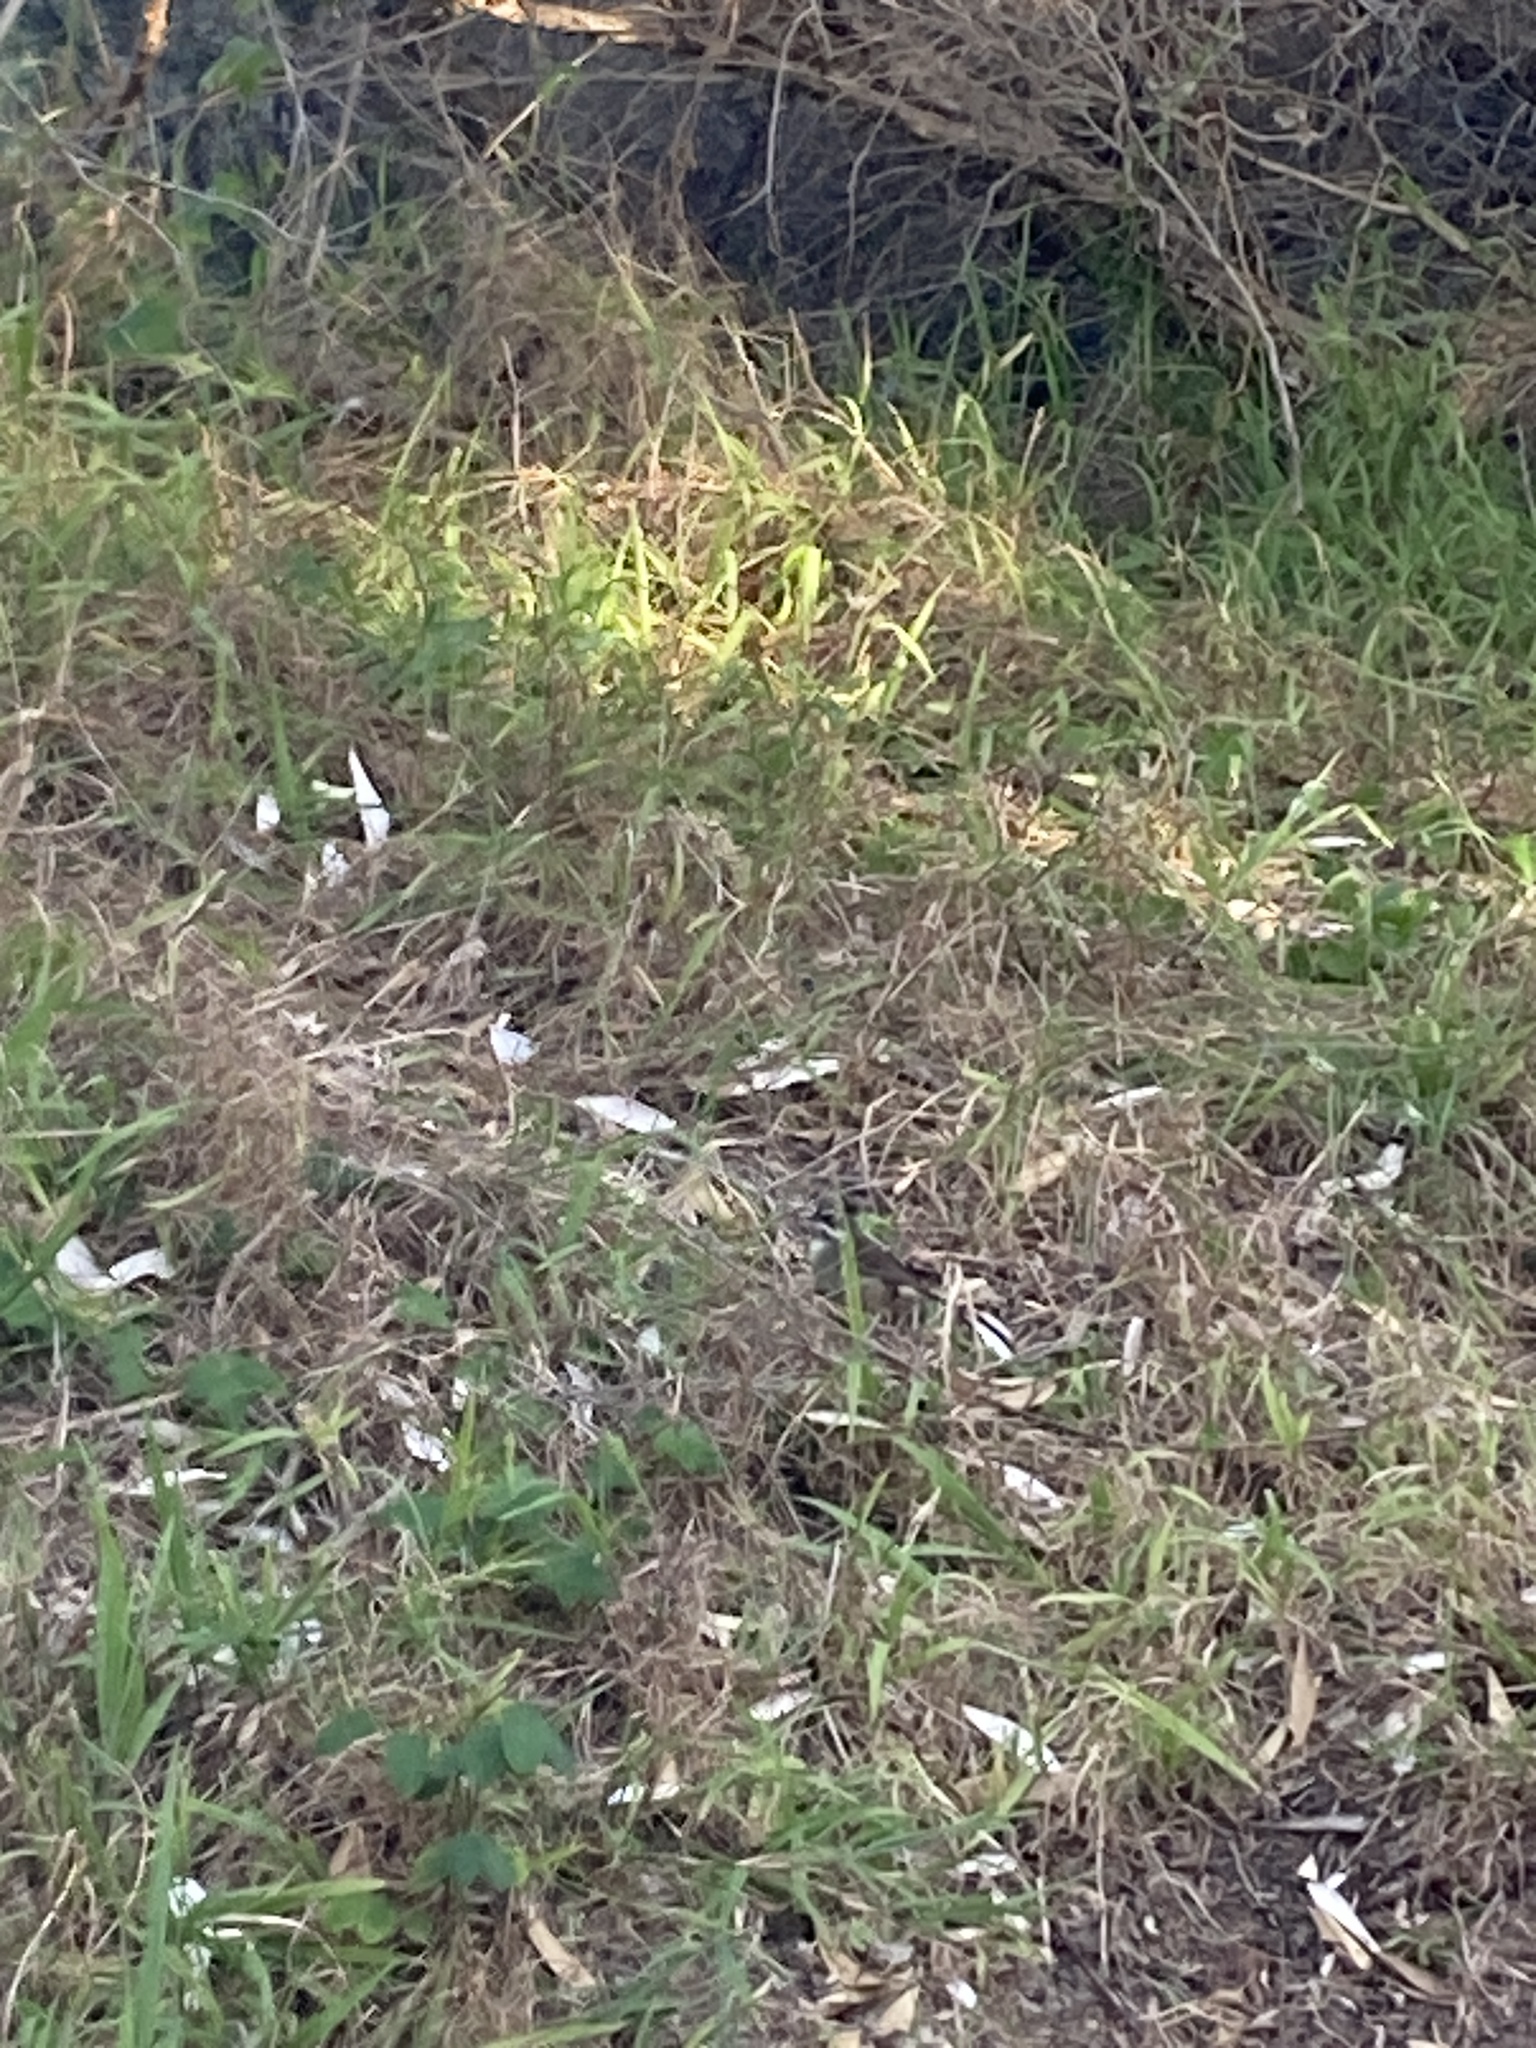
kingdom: Animalia
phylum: Chordata
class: Aves
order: Passeriformes
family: Acanthizidae
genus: Sericornis
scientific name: Sericornis frontalis
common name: White-browed scrubwren
